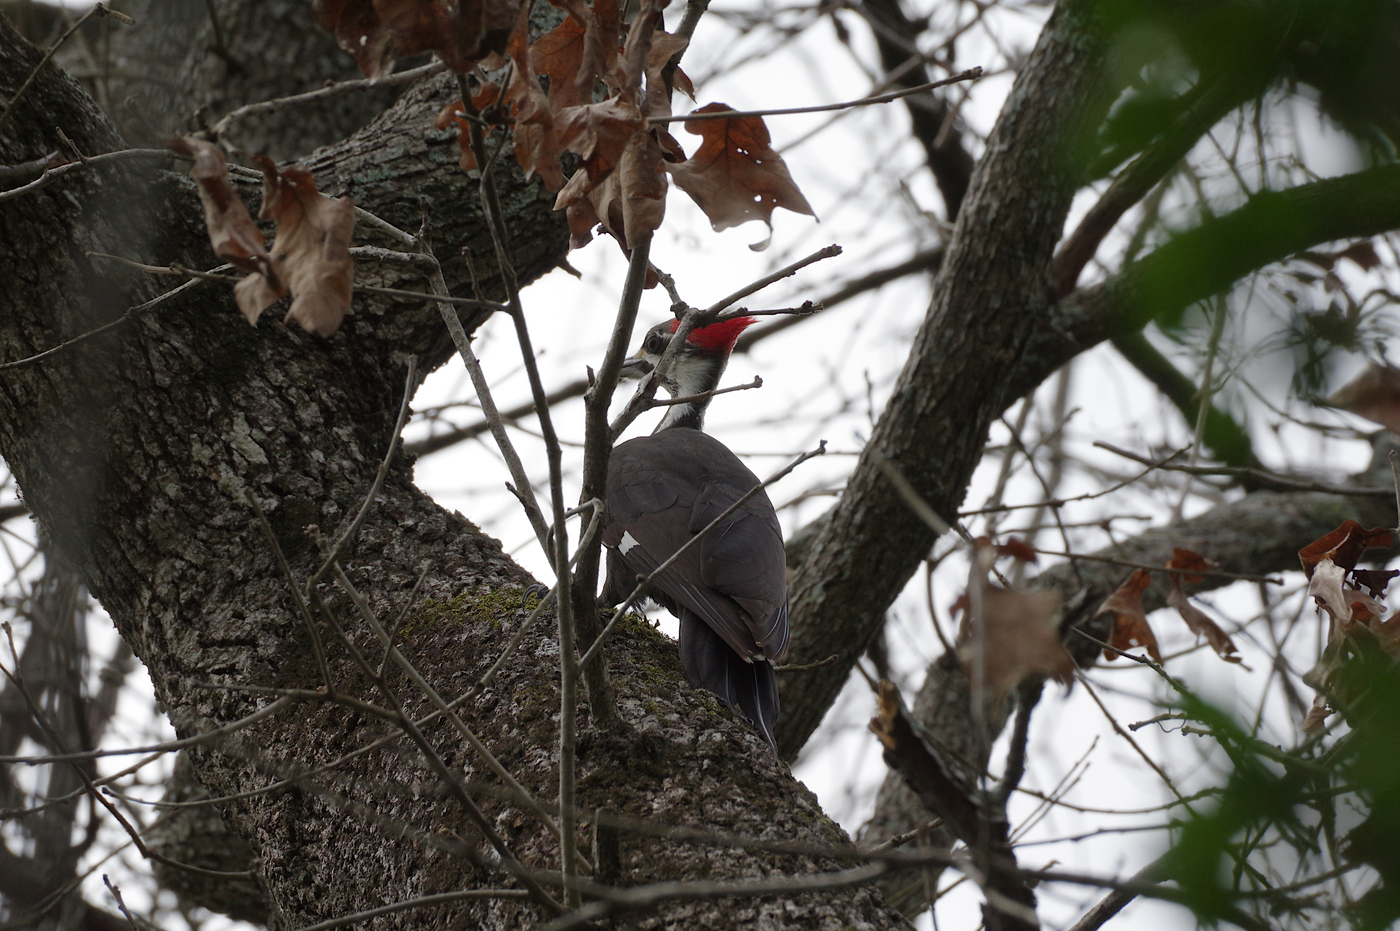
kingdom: Animalia
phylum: Chordata
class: Aves
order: Piciformes
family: Picidae
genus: Dryocopus
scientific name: Dryocopus pileatus
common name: Pileated woodpecker
